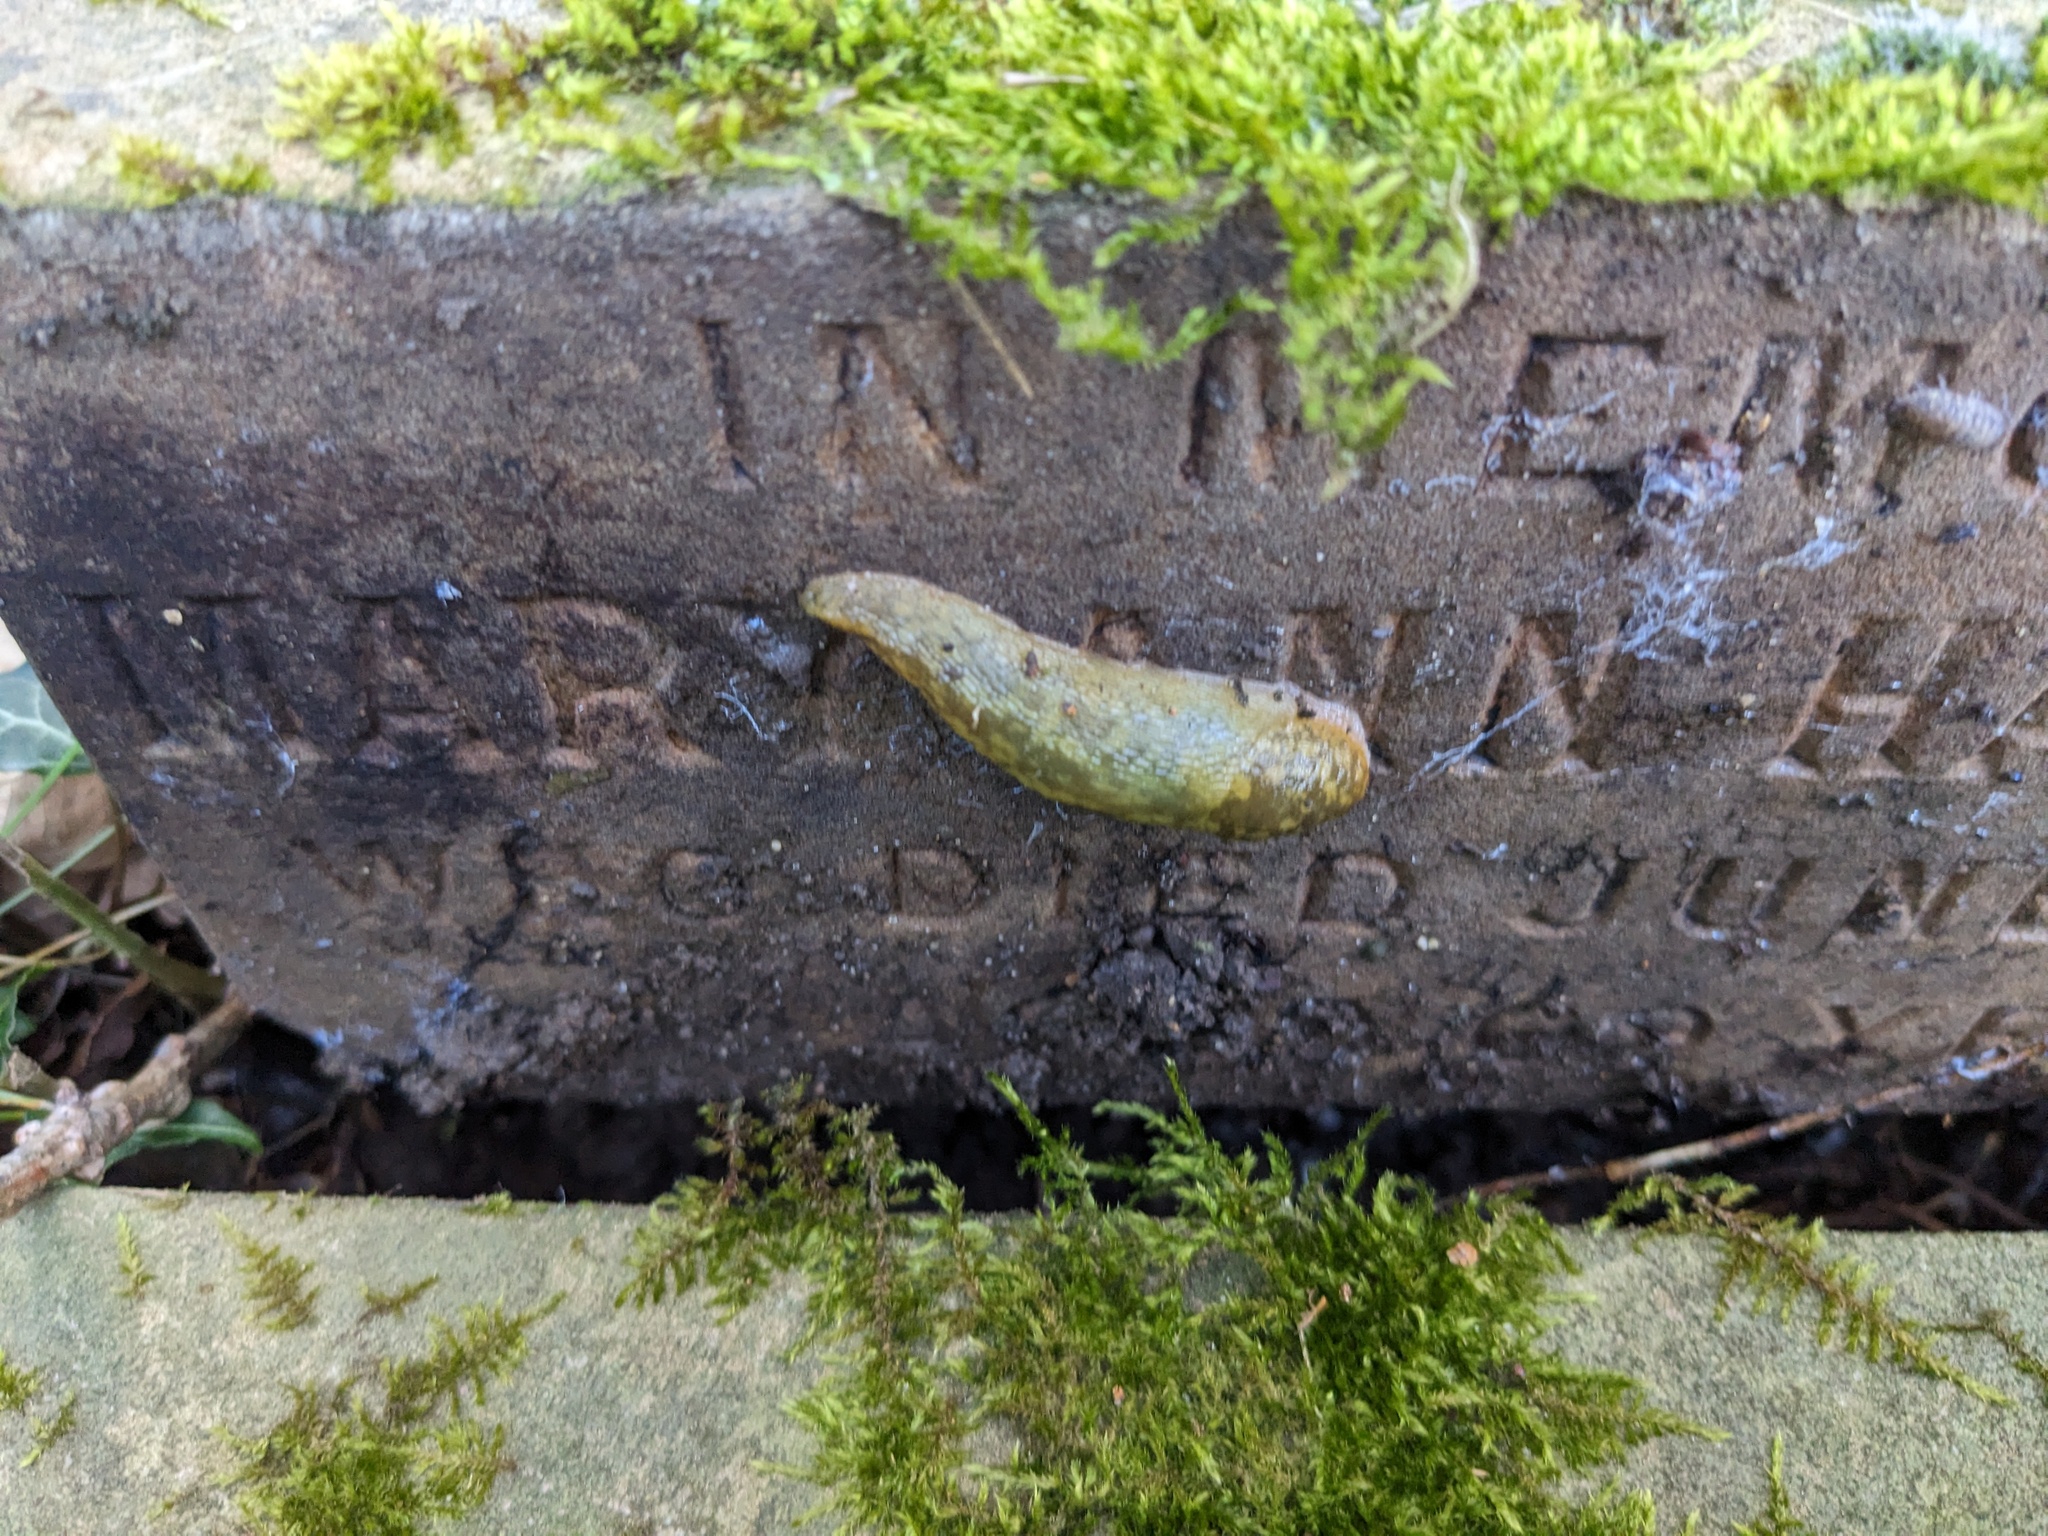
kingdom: Animalia
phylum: Mollusca
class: Gastropoda
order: Stylommatophora
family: Limacidae
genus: Limacus
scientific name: Limacus maculatus
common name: Irish yellow slug
